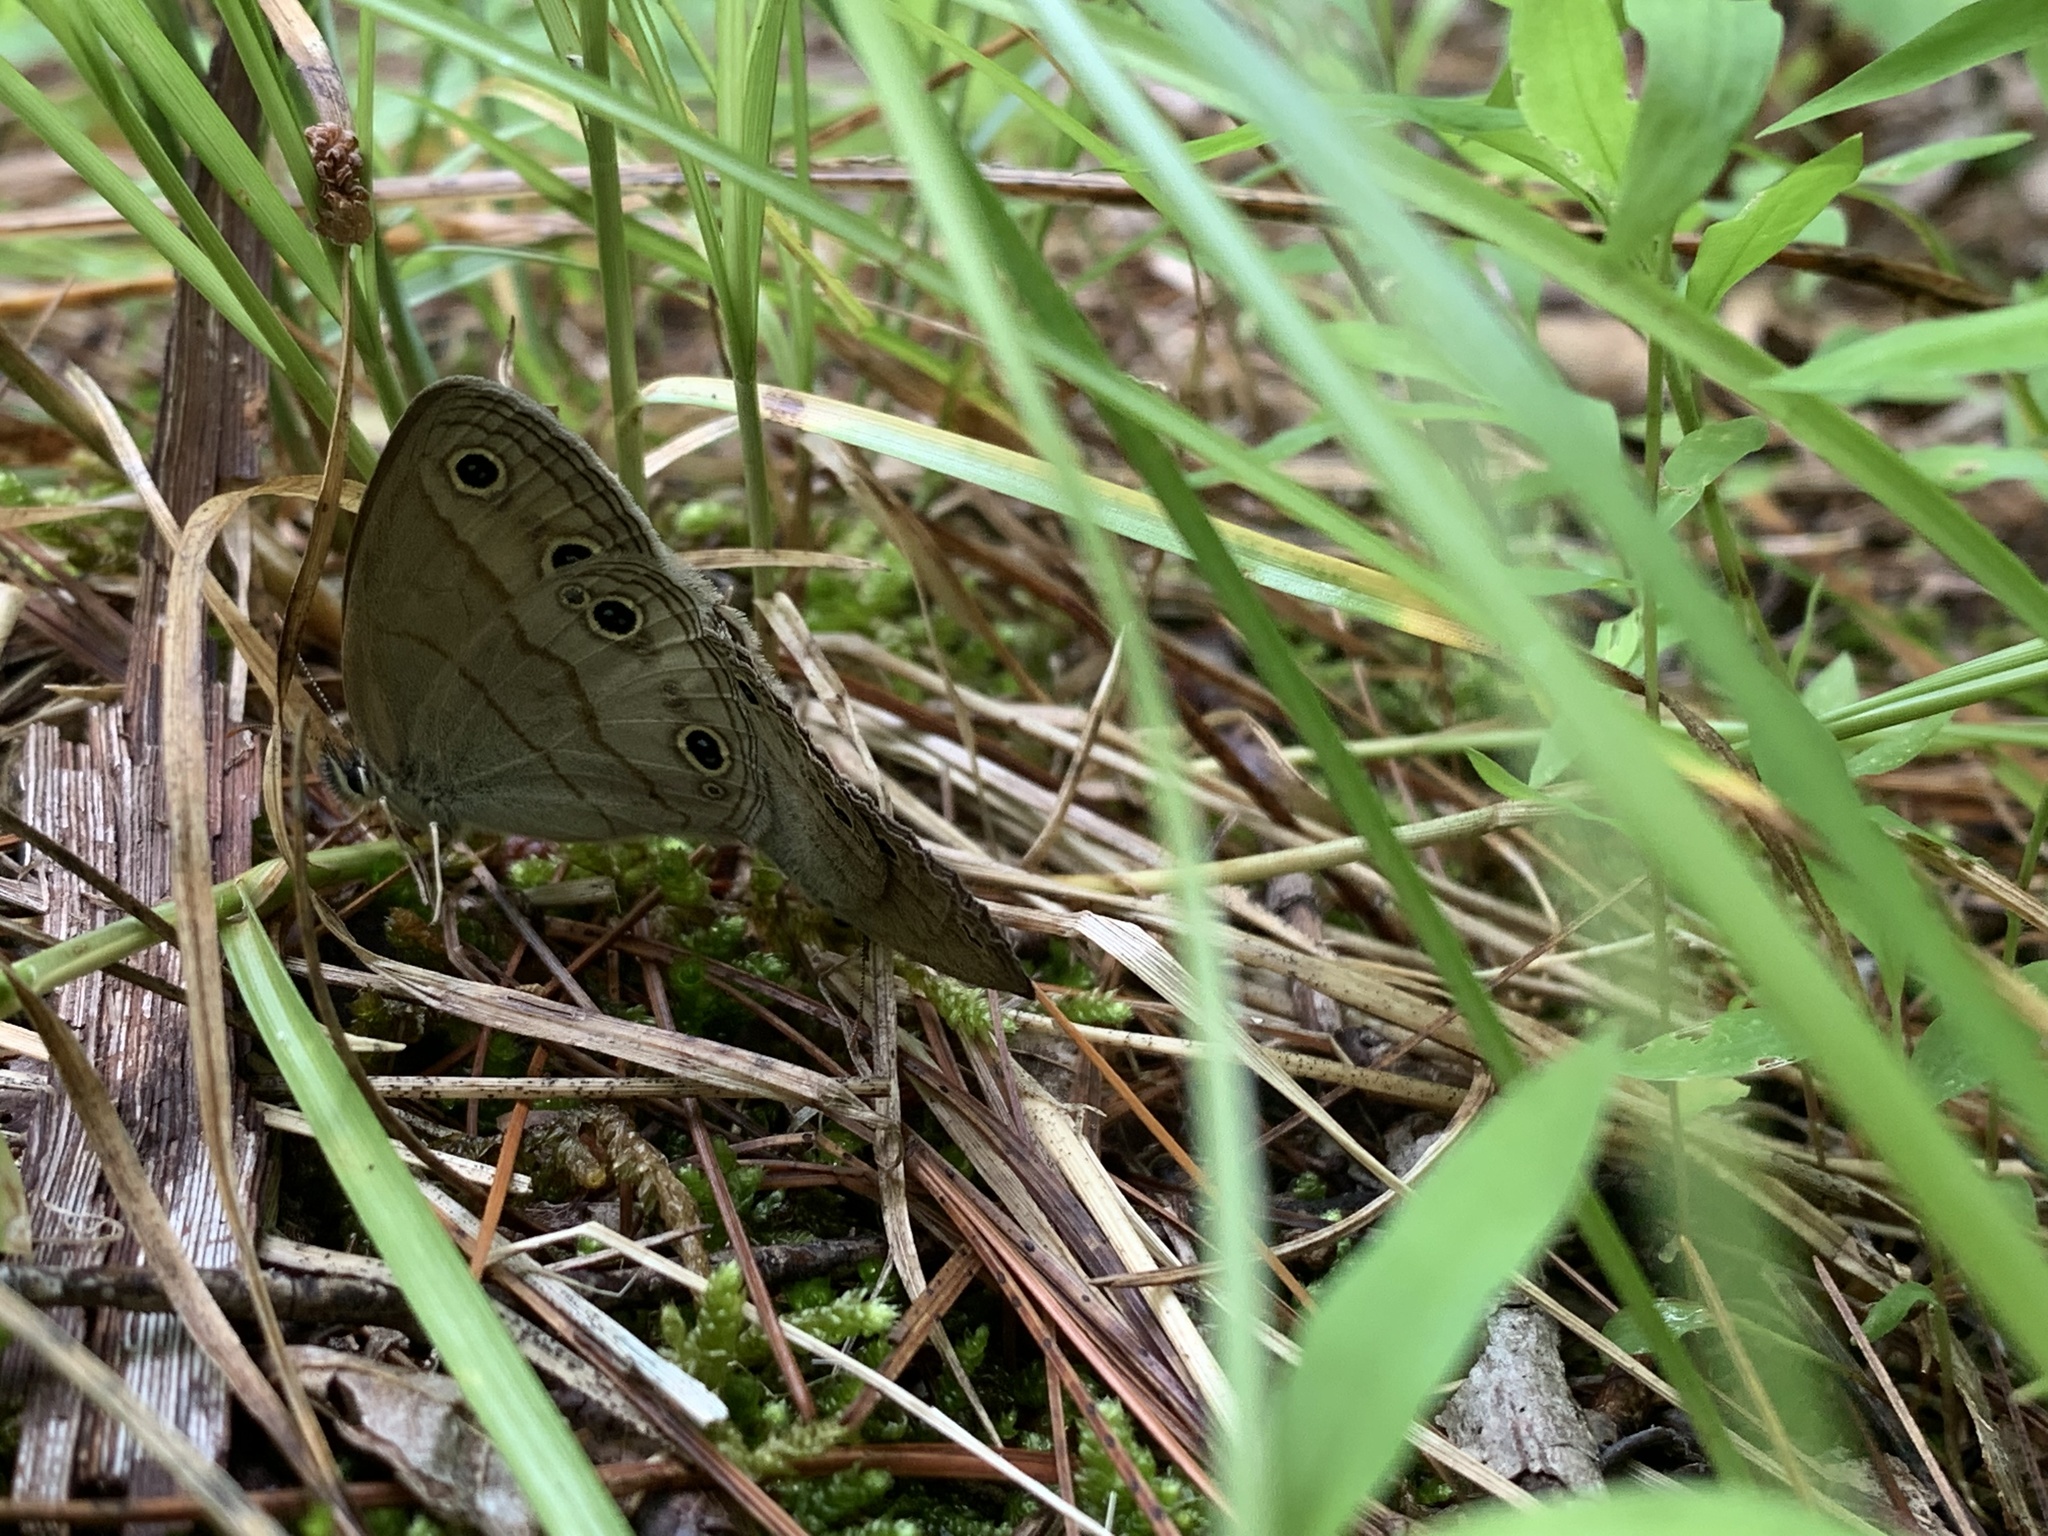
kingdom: Animalia
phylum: Arthropoda
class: Insecta
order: Lepidoptera
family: Nymphalidae
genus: Euptychia
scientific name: Euptychia cymela
